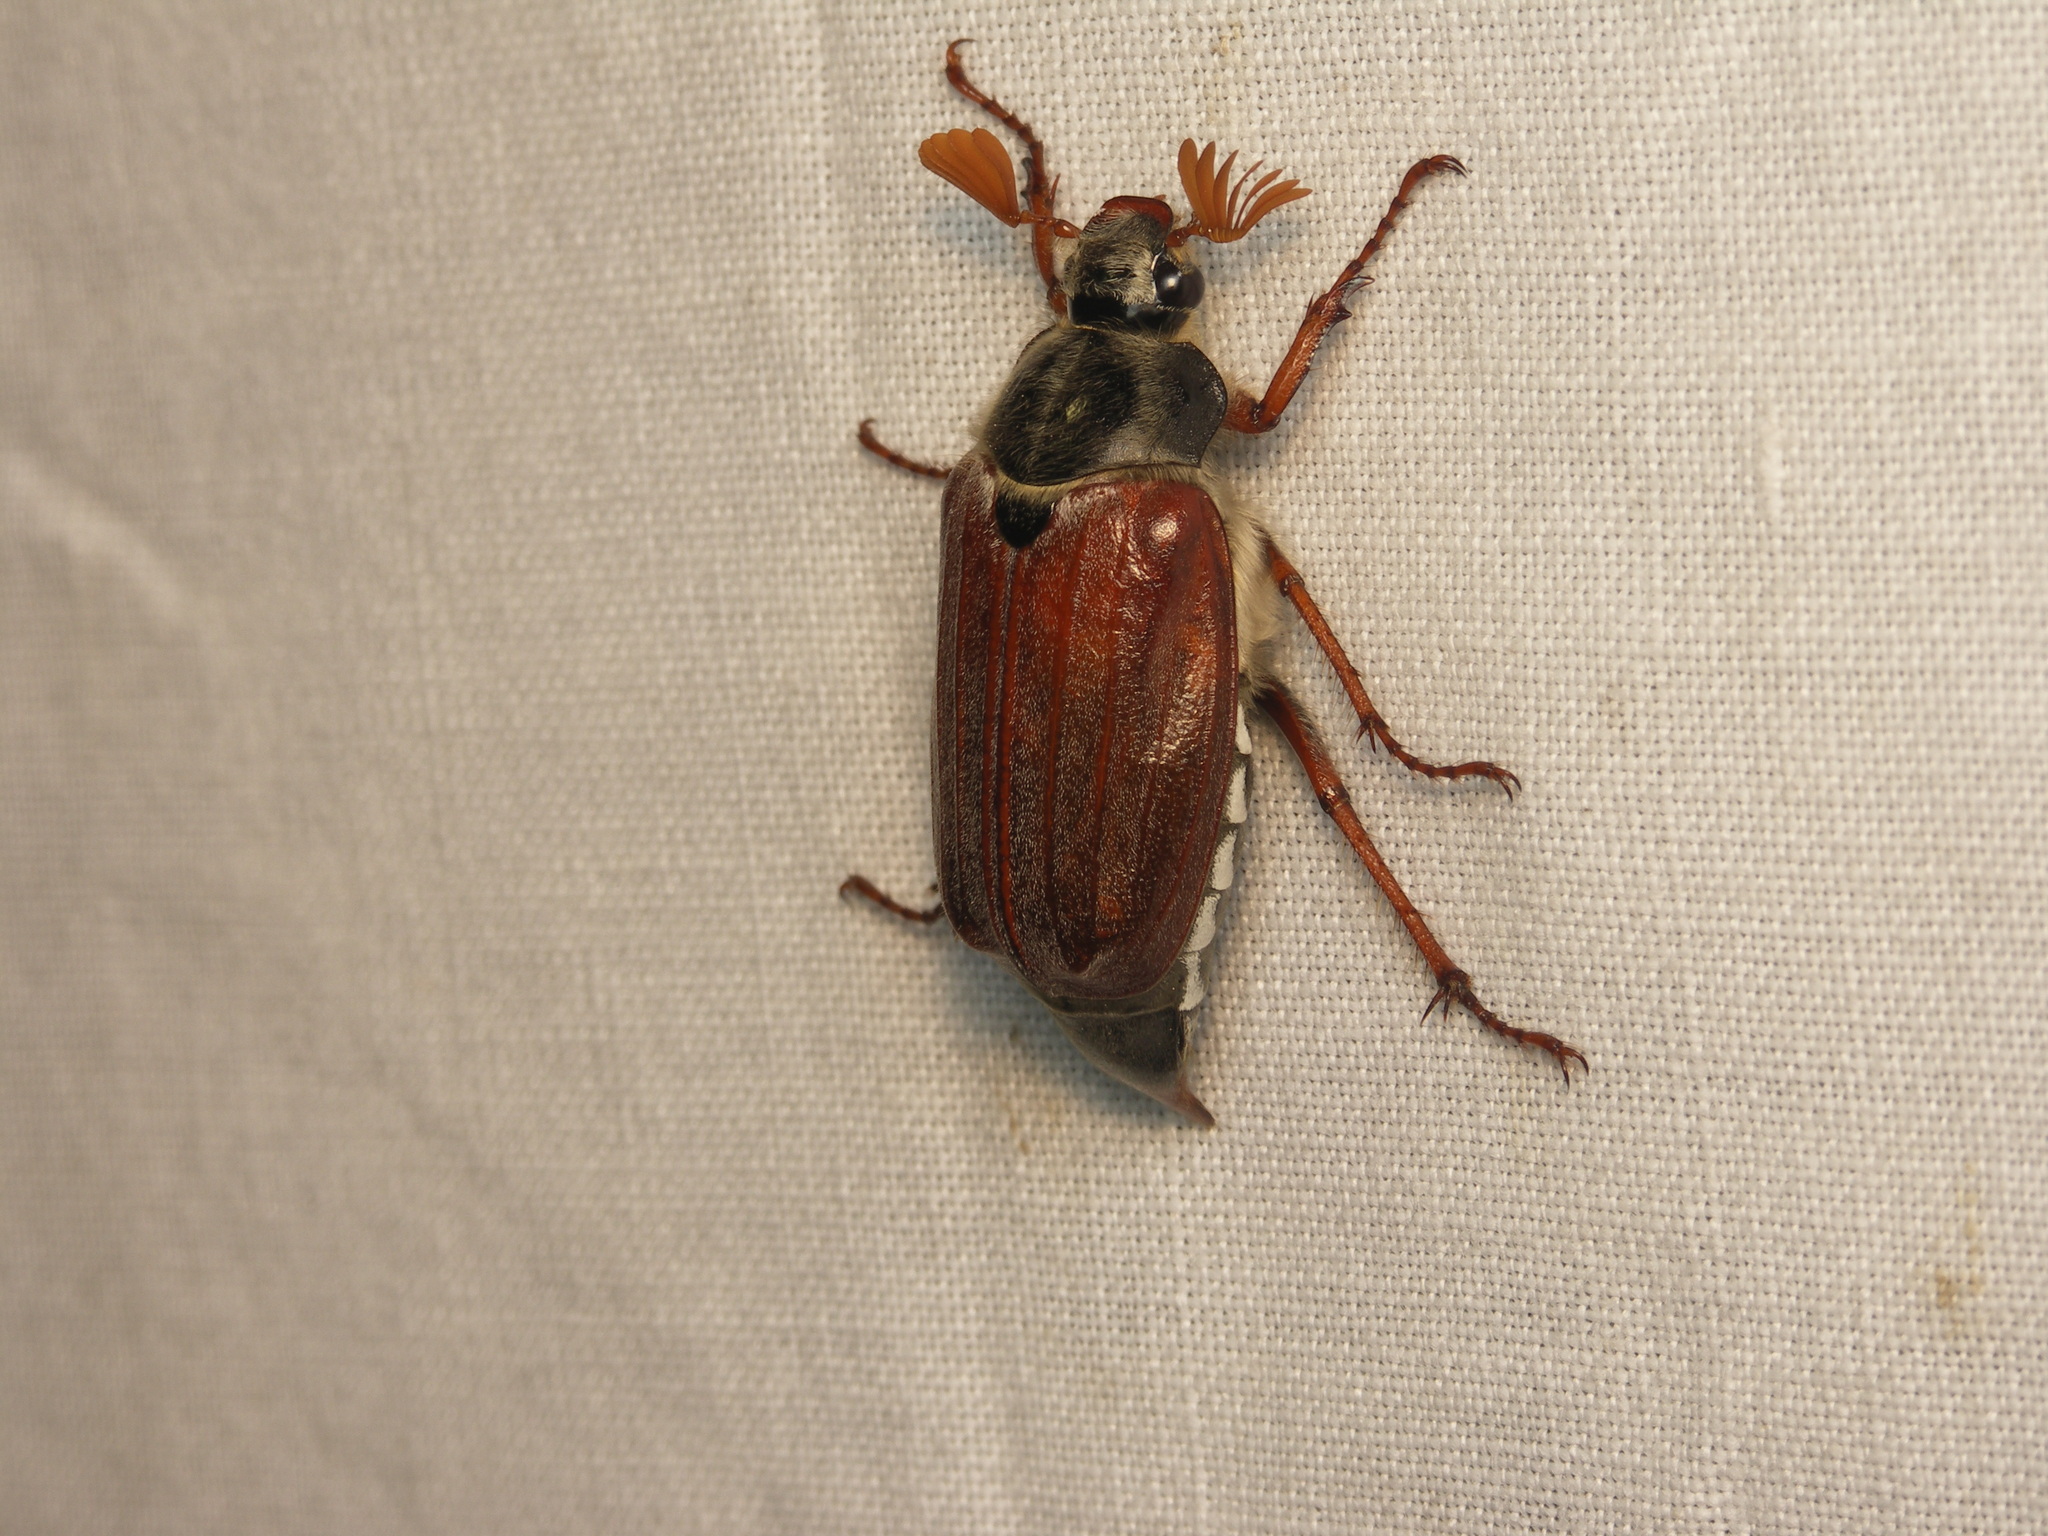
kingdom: Animalia
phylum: Arthropoda
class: Insecta
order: Coleoptera
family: Scarabaeidae
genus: Melolontha
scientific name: Melolontha melolontha
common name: Cockchafer maybeetle
